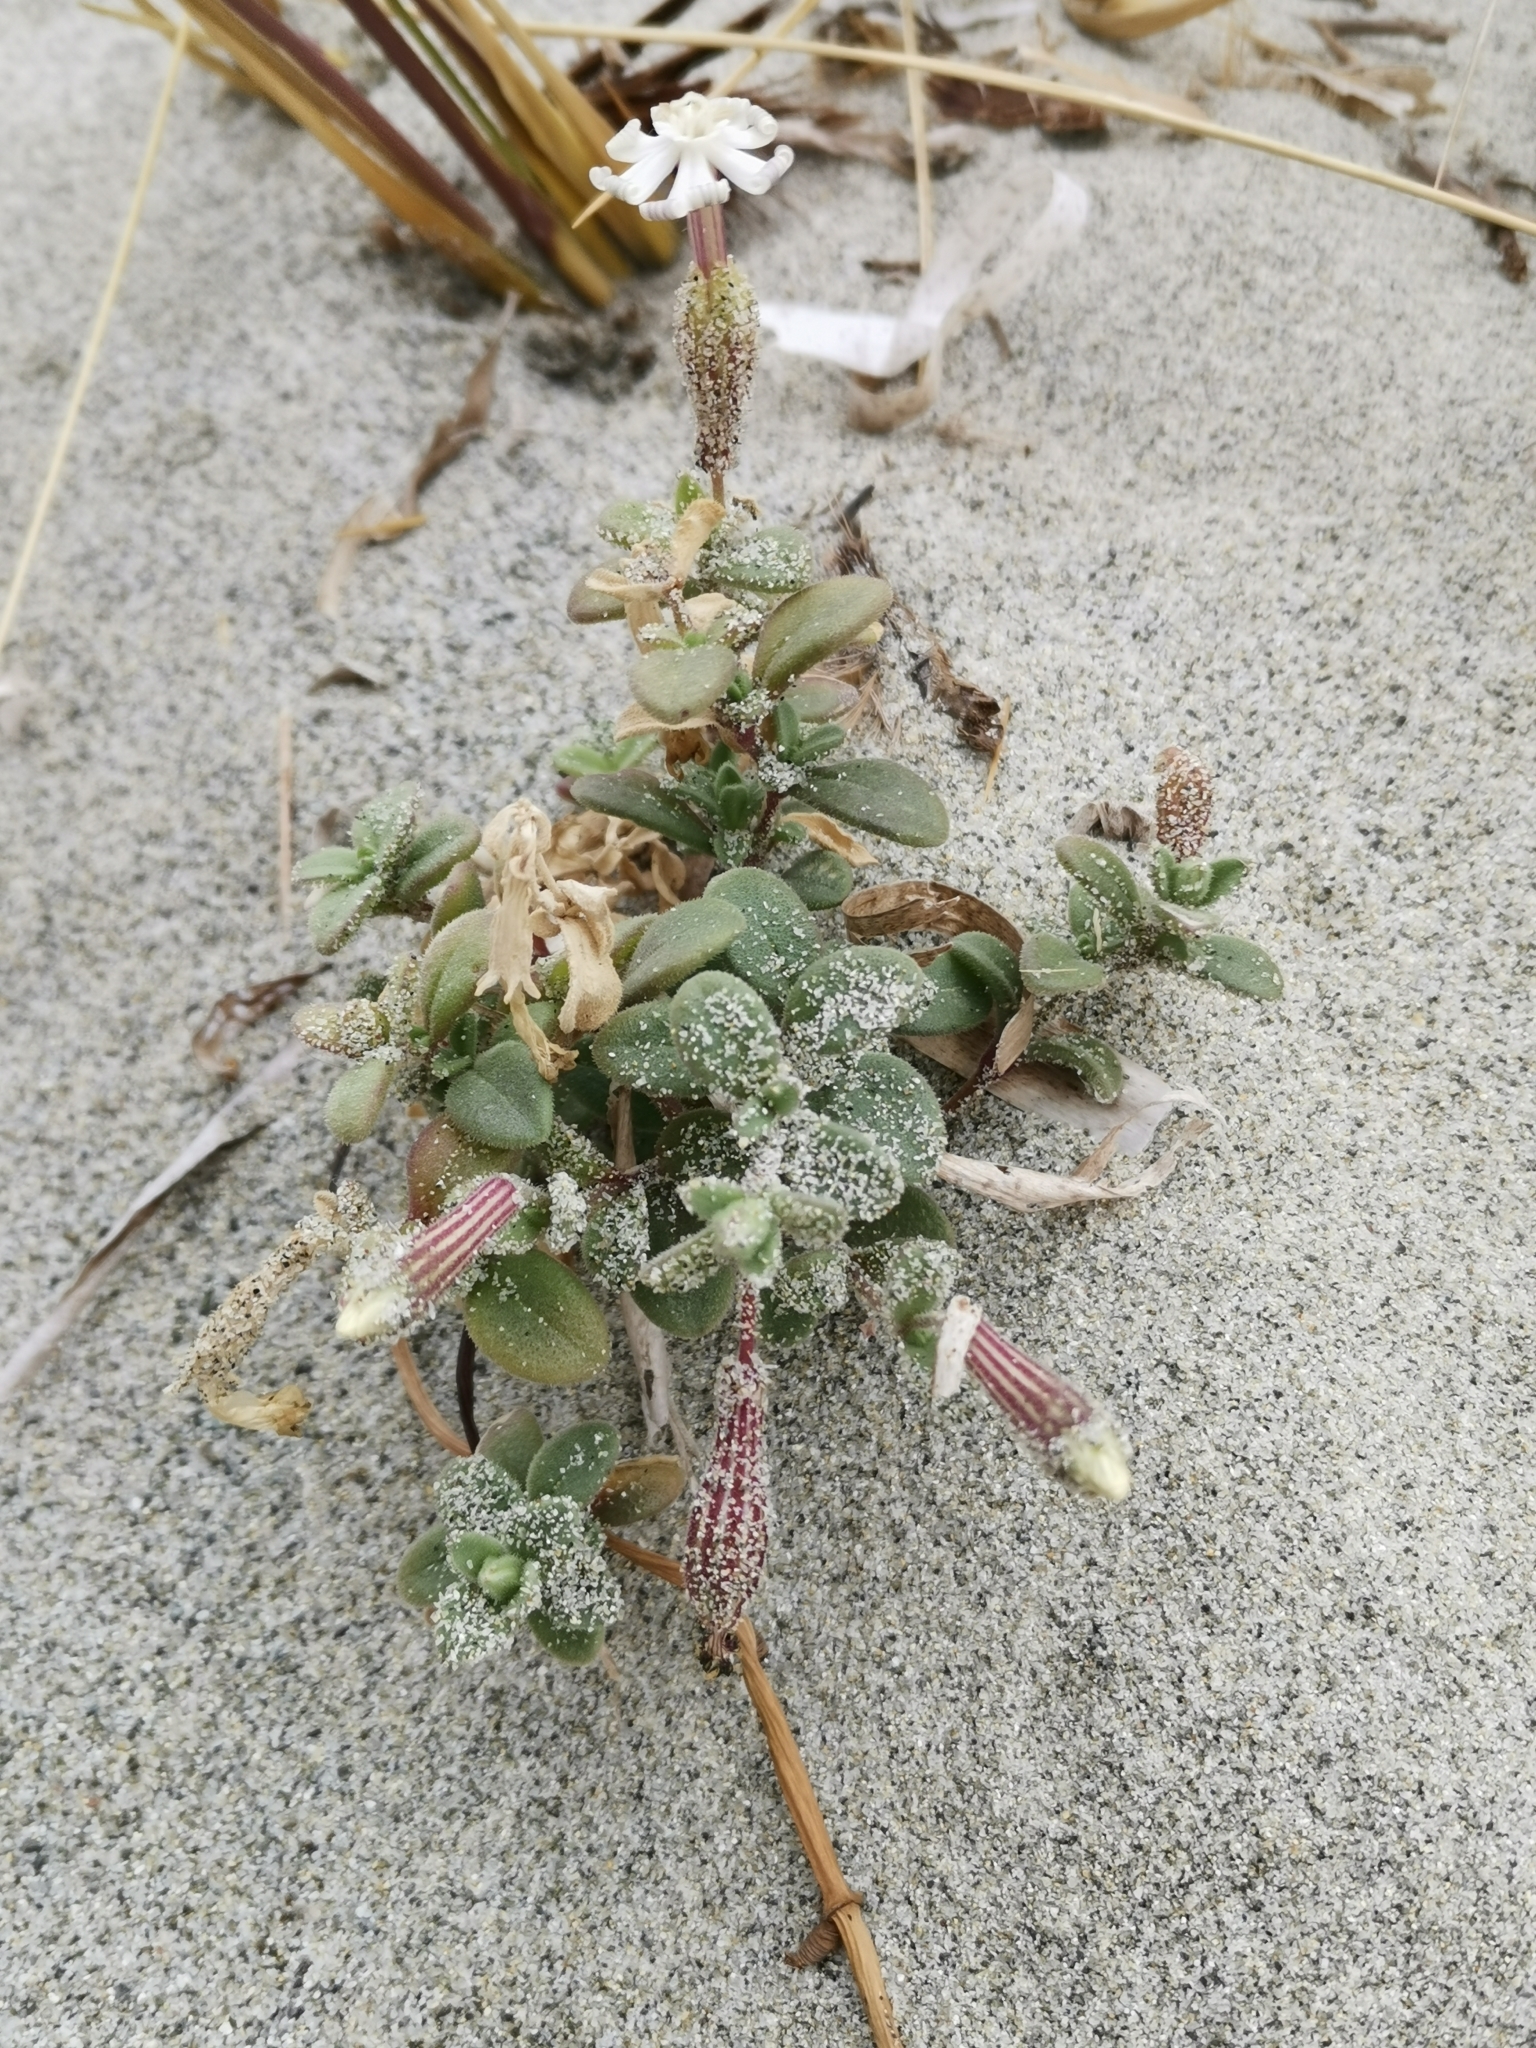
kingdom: Plantae
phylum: Tracheophyta
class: Magnoliopsida
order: Caryophyllales
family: Caryophyllaceae
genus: Silene
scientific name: Silene succulenta
